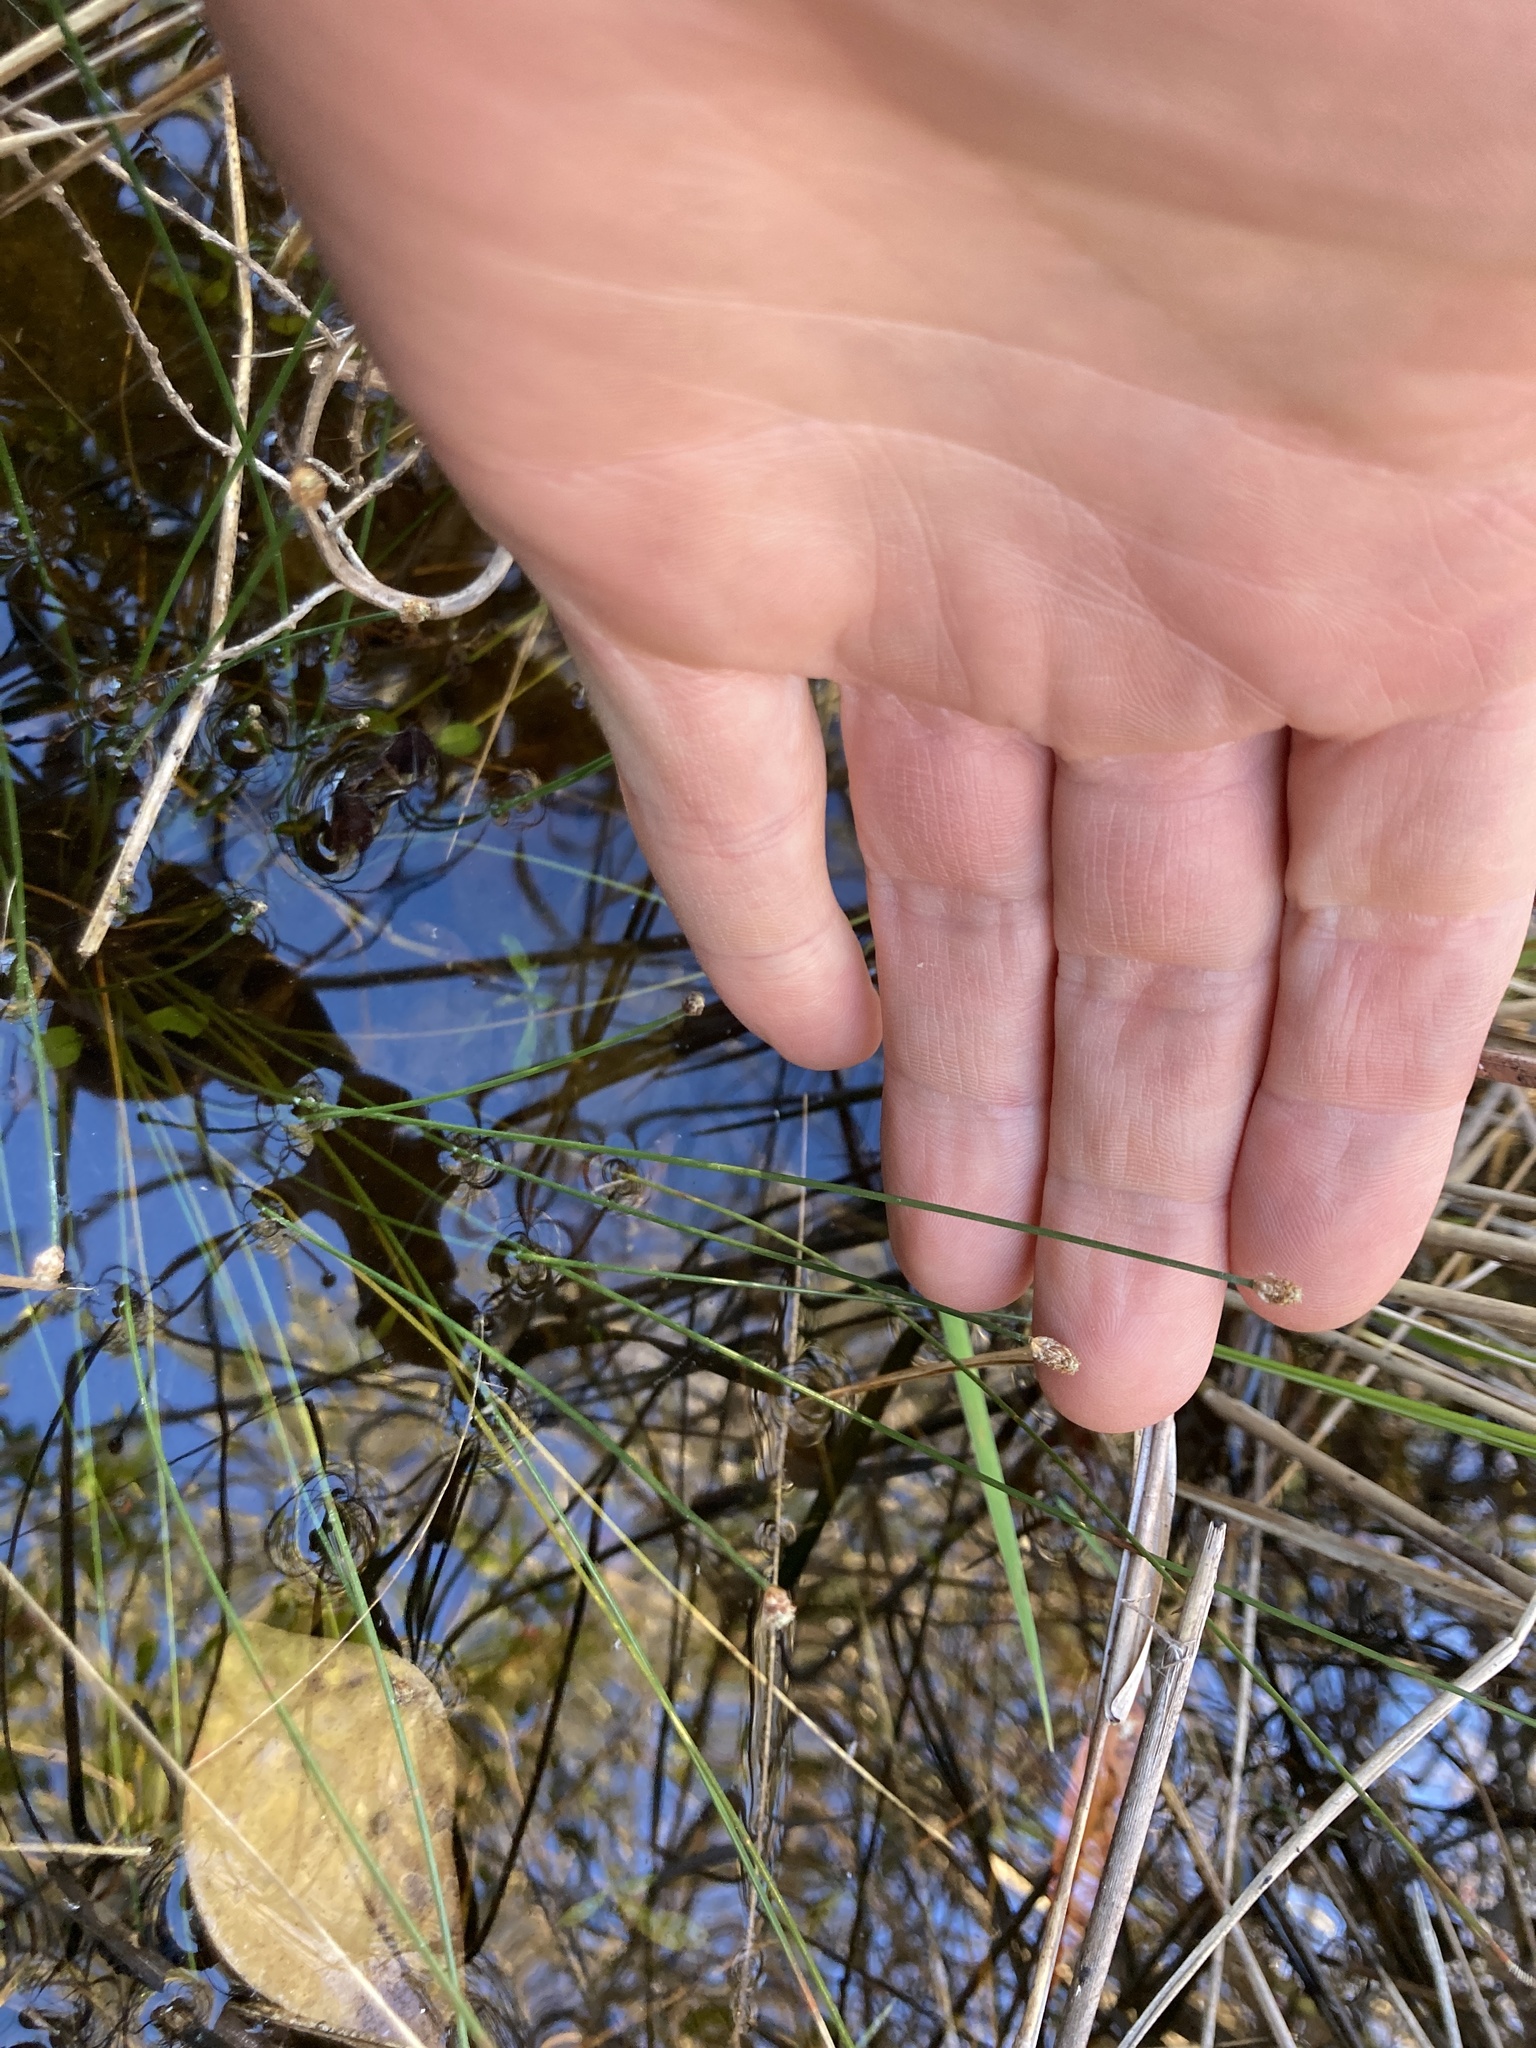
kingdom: Plantae
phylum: Tracheophyta
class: Liliopsida
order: Poales
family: Cyperaceae
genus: Eleocharis
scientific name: Eleocharis geniculata
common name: Canada spikesedge
